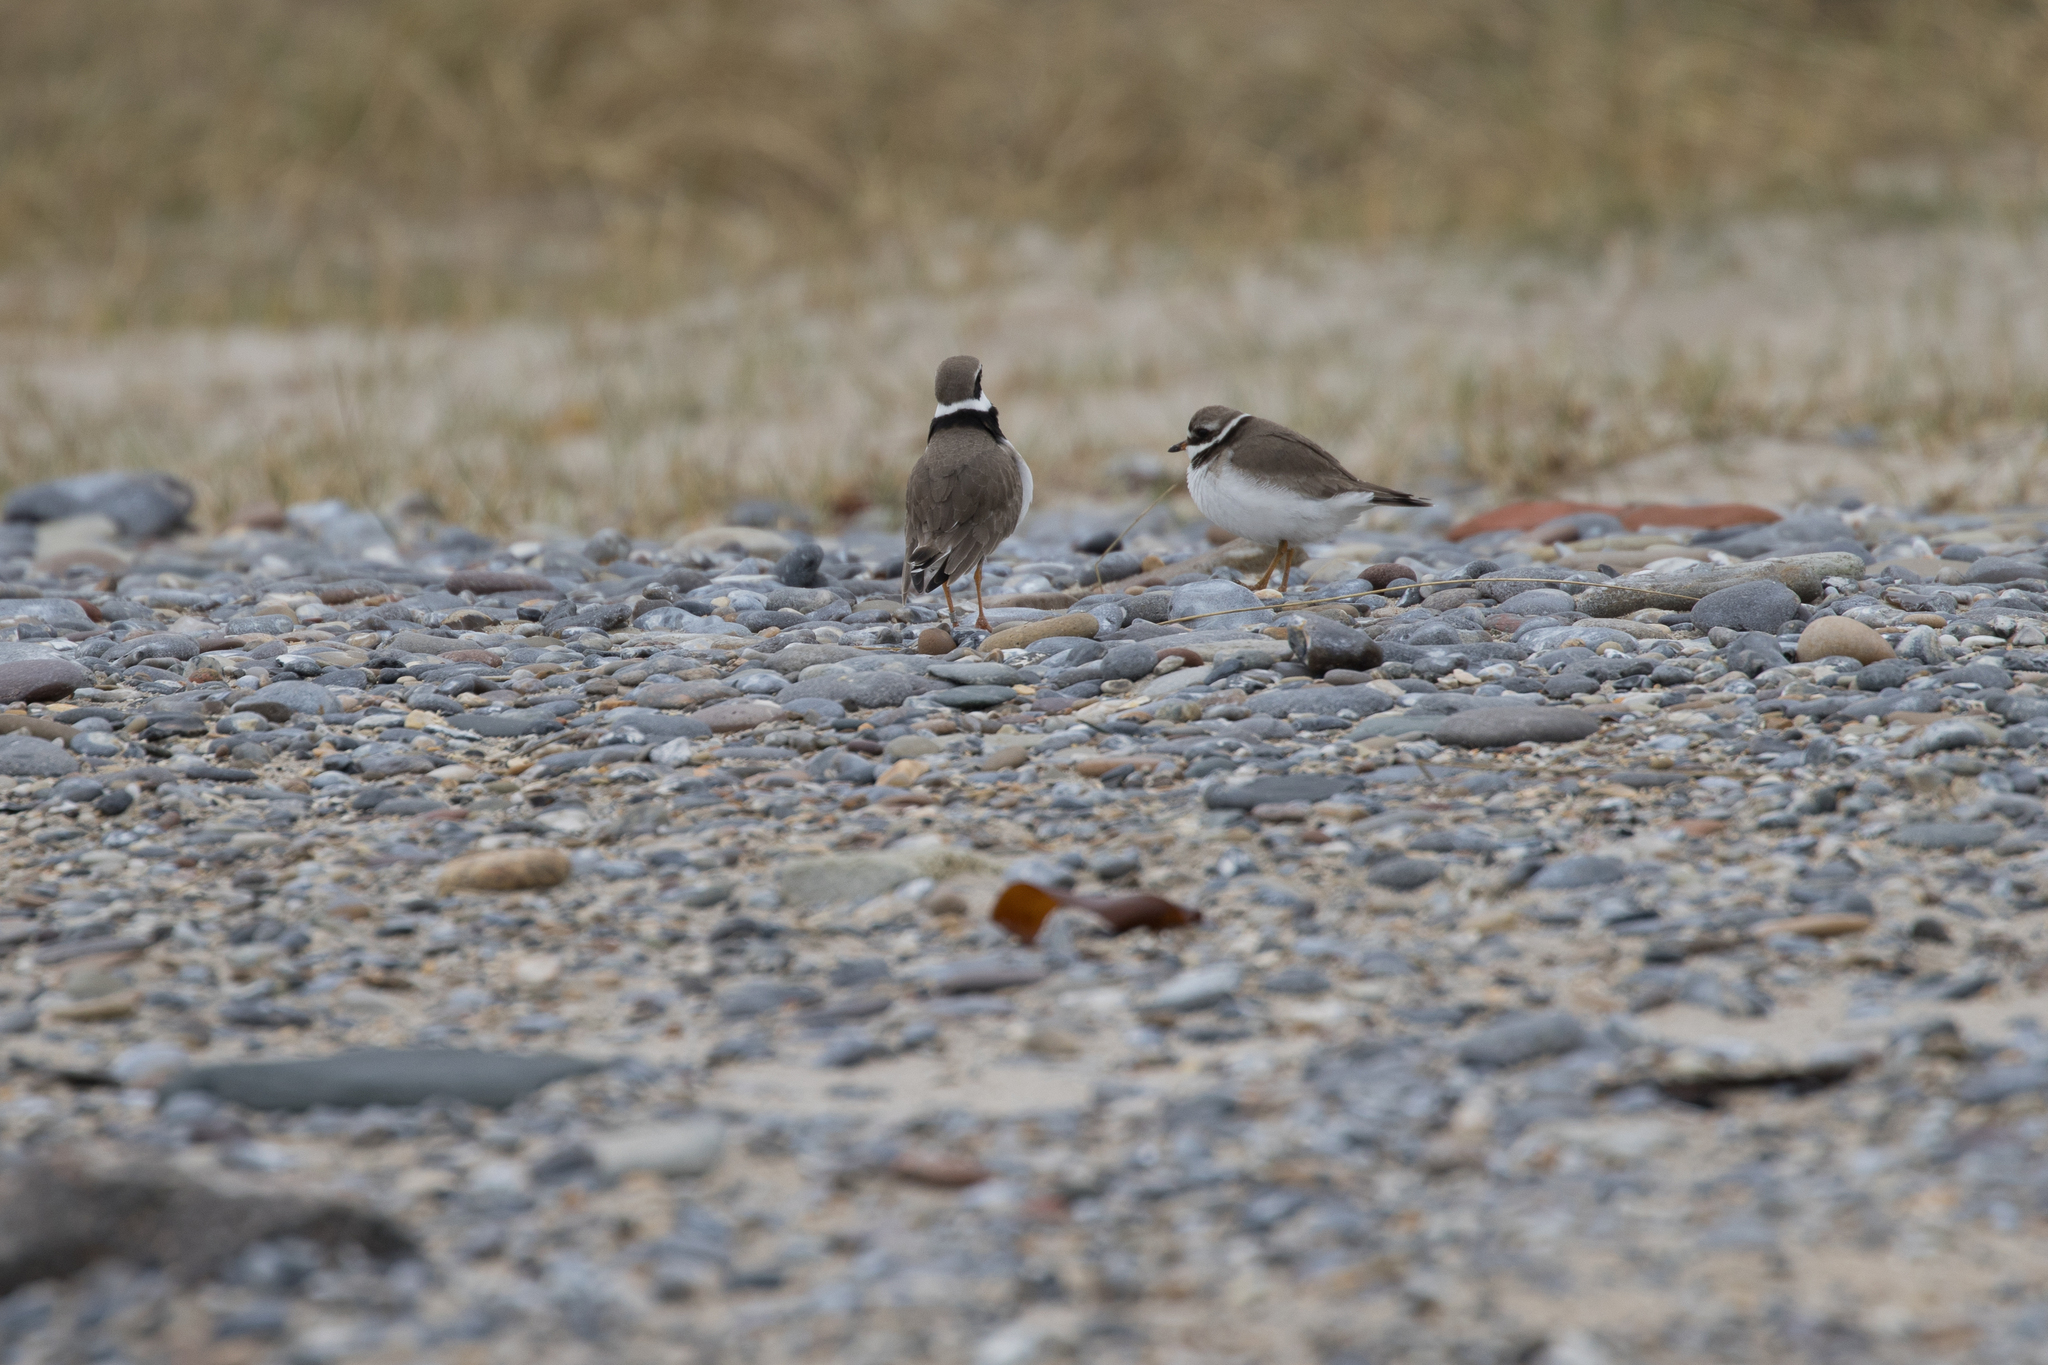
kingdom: Animalia
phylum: Chordata
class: Aves
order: Charadriiformes
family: Charadriidae
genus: Charadrius
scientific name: Charadrius hiaticula
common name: Common ringed plover
